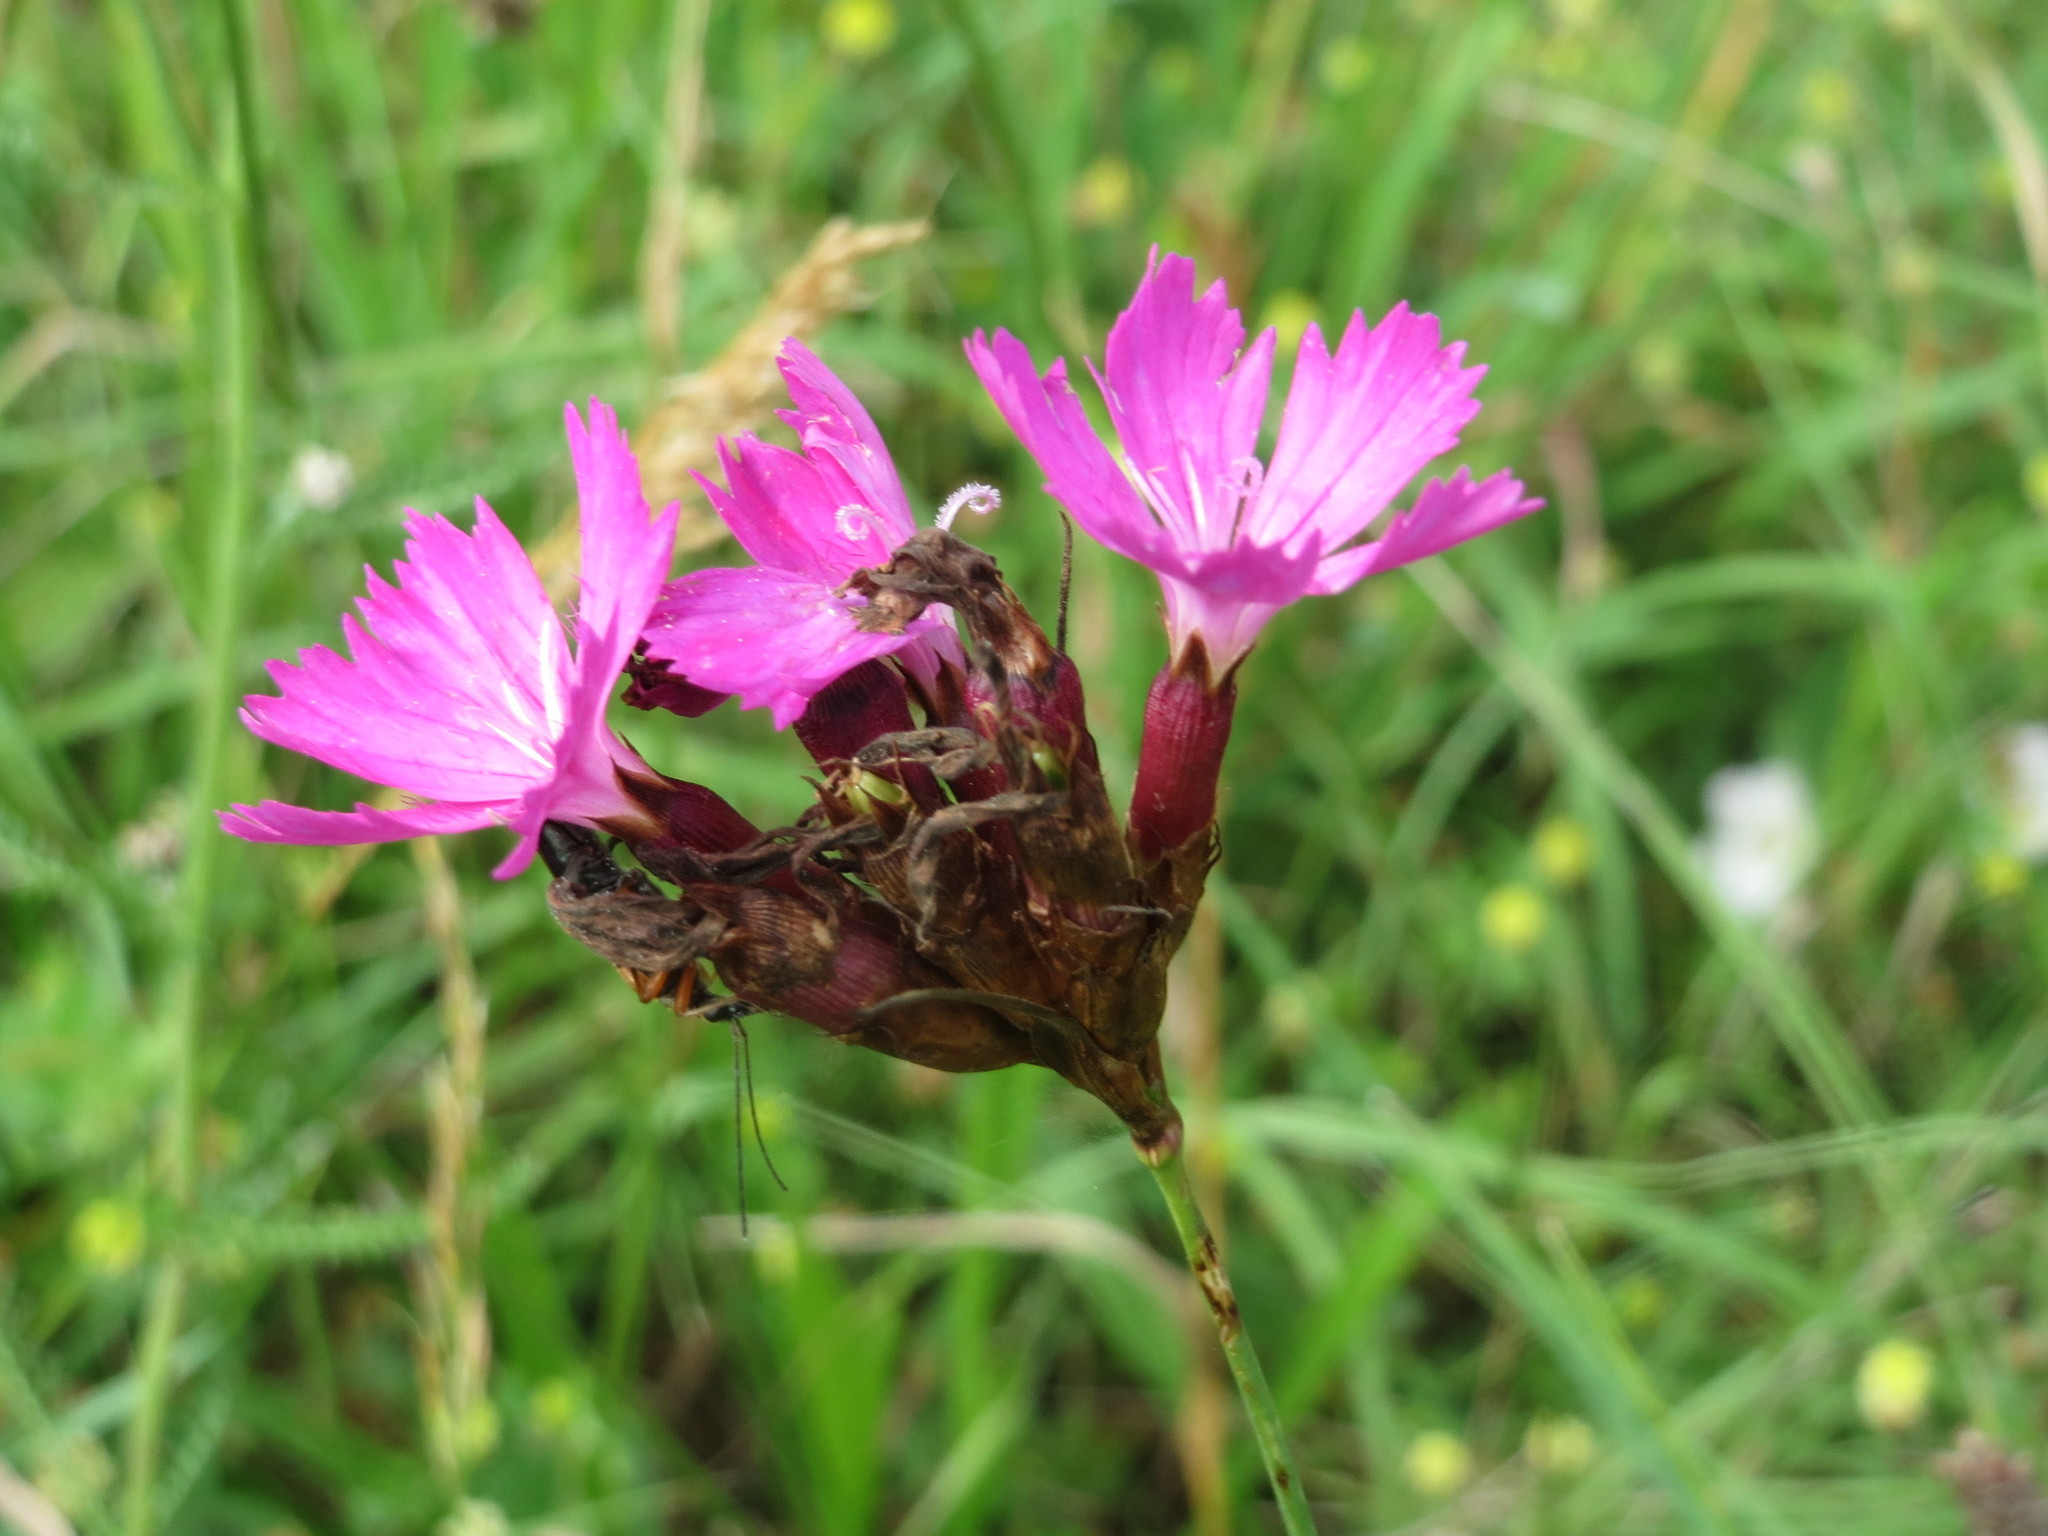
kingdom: Plantae
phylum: Tracheophyta
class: Magnoliopsida
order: Caryophyllales
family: Caryophyllaceae
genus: Dianthus
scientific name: Dianthus carthusianorum
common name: Carthusian pink
